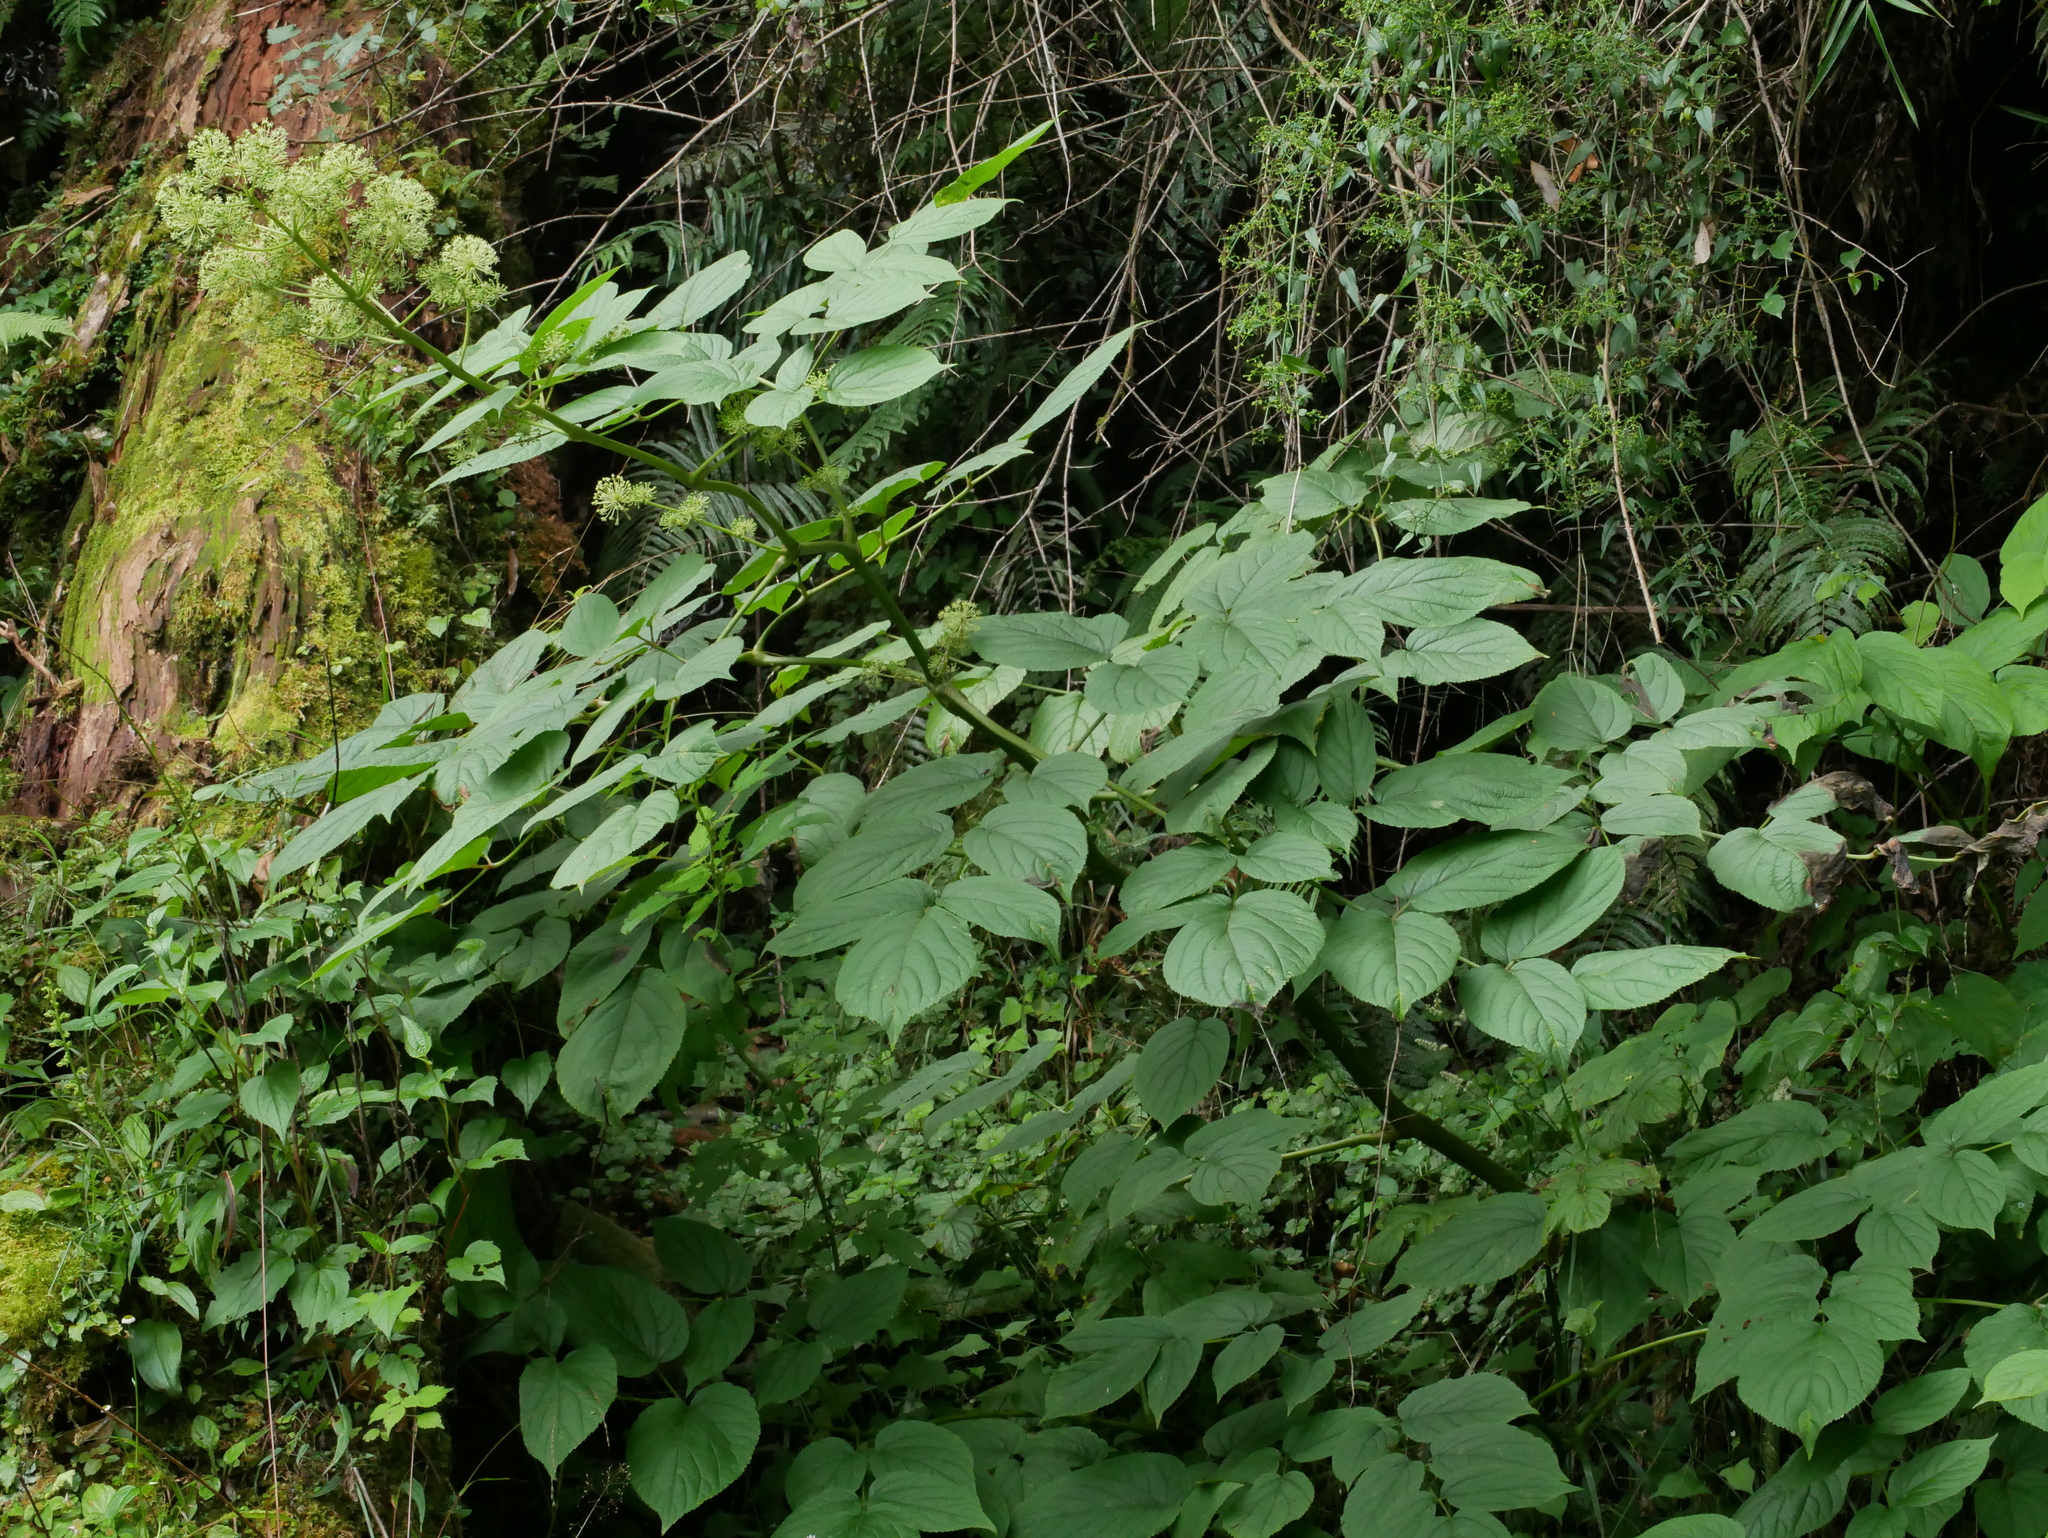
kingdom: Plantae
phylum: Tracheophyta
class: Magnoliopsida
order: Apiales
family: Araliaceae
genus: Aralia
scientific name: Aralia cordata
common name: Udo
